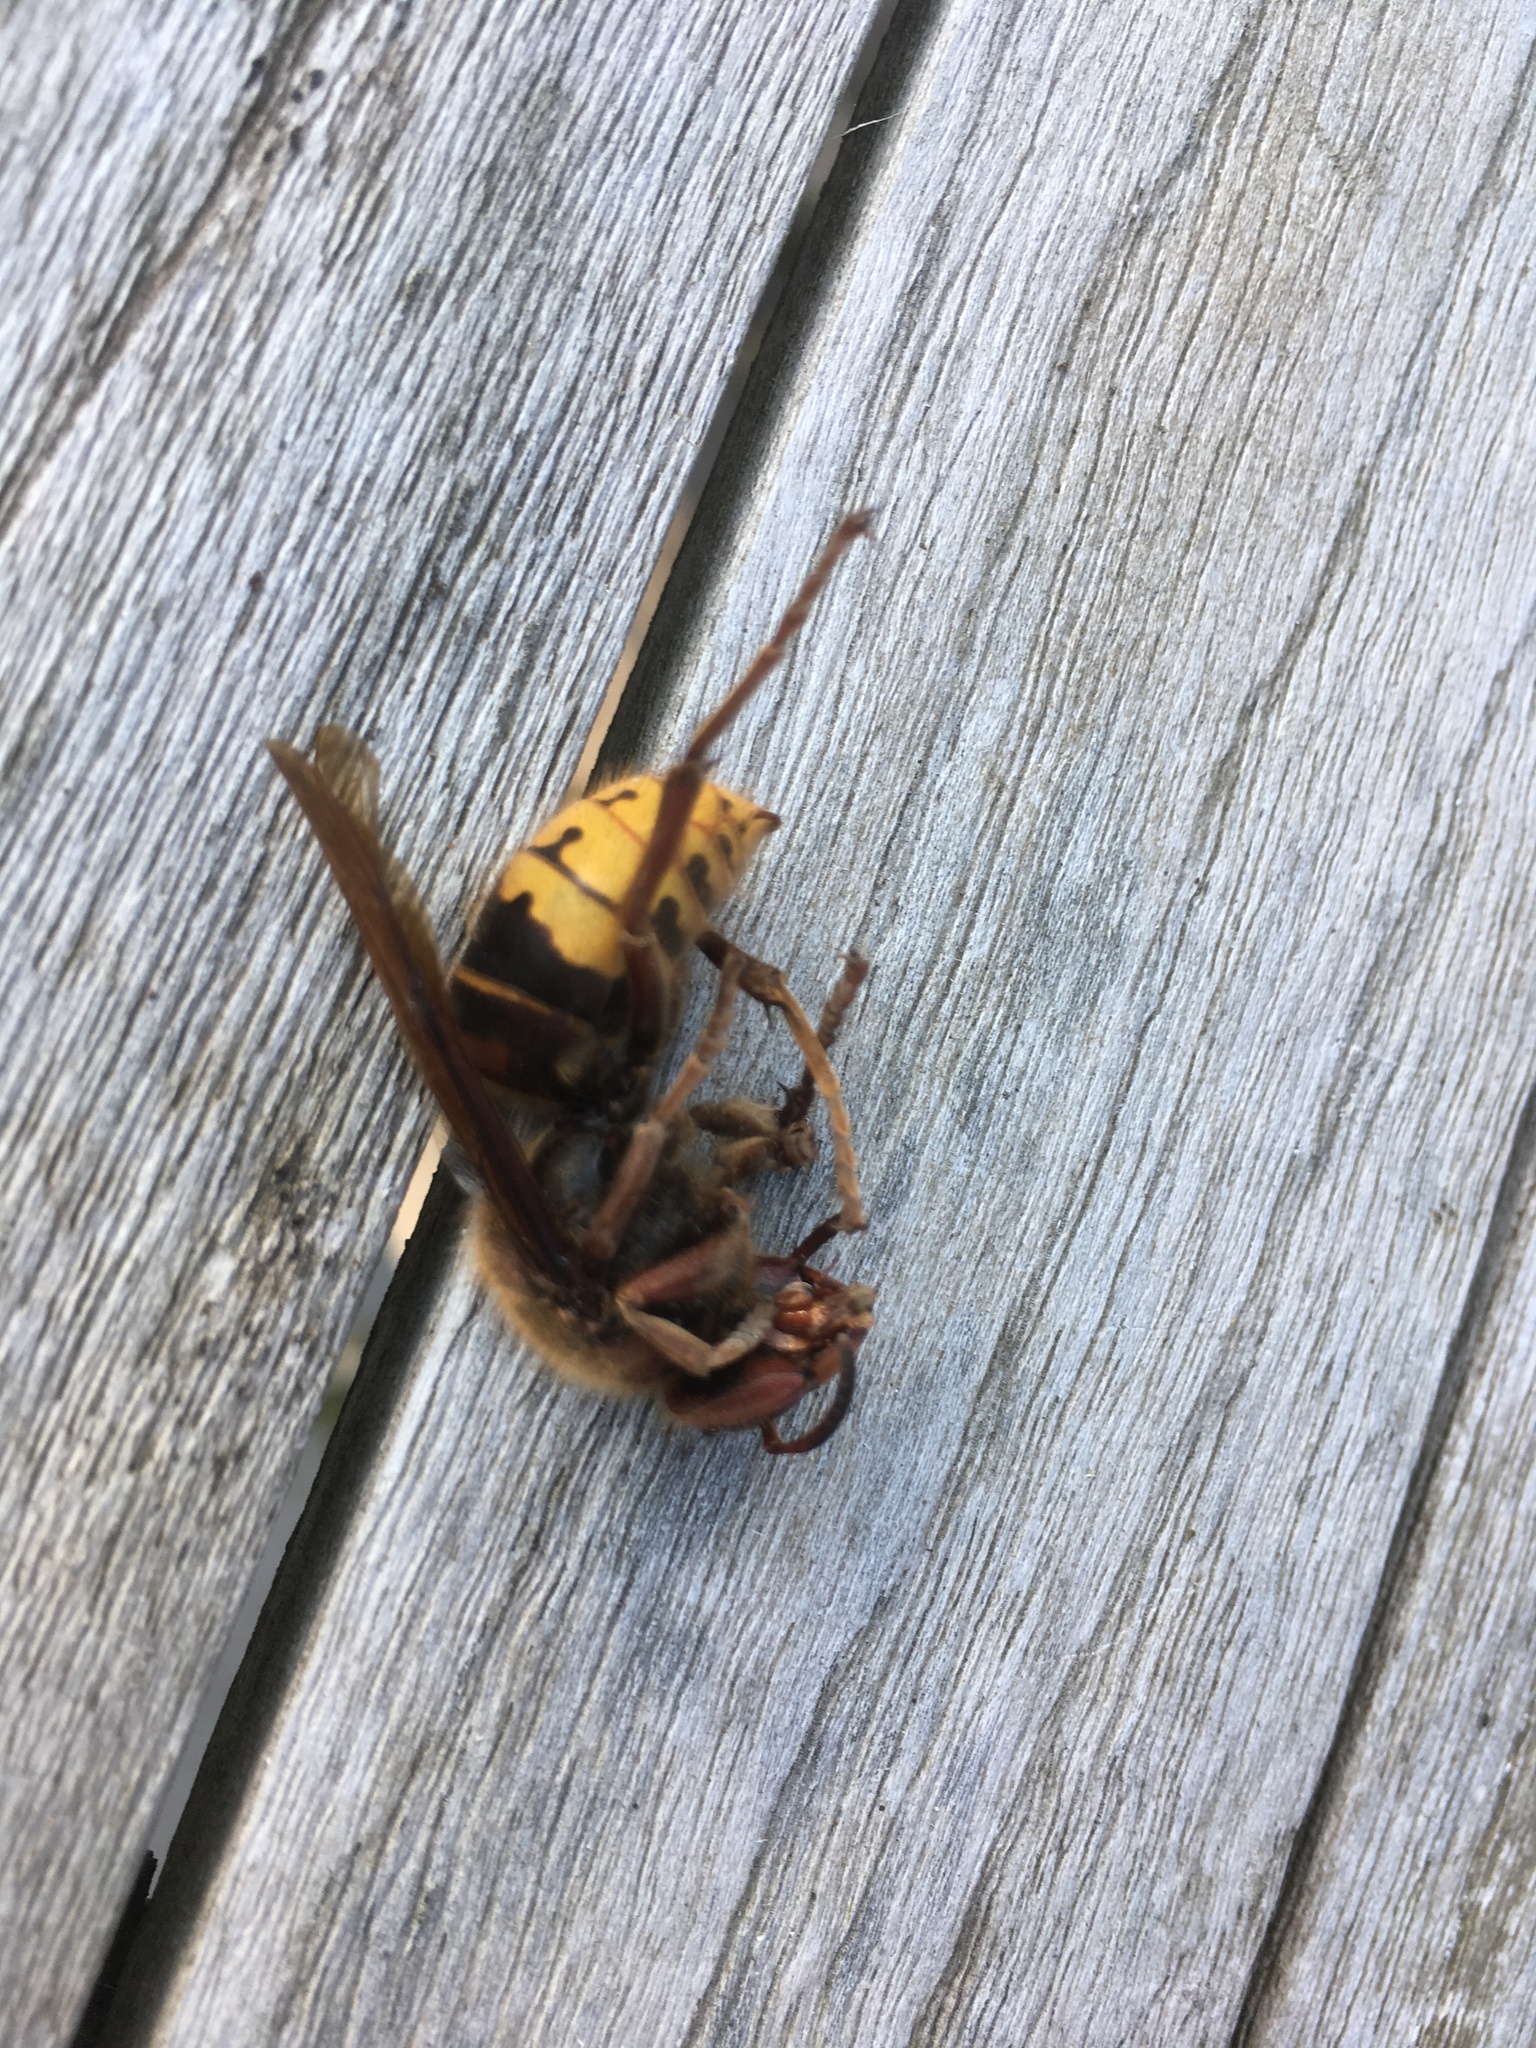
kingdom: Animalia
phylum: Arthropoda
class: Insecta
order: Hymenoptera
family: Vespidae
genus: Vespa
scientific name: Vespa crabro
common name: Hornet
